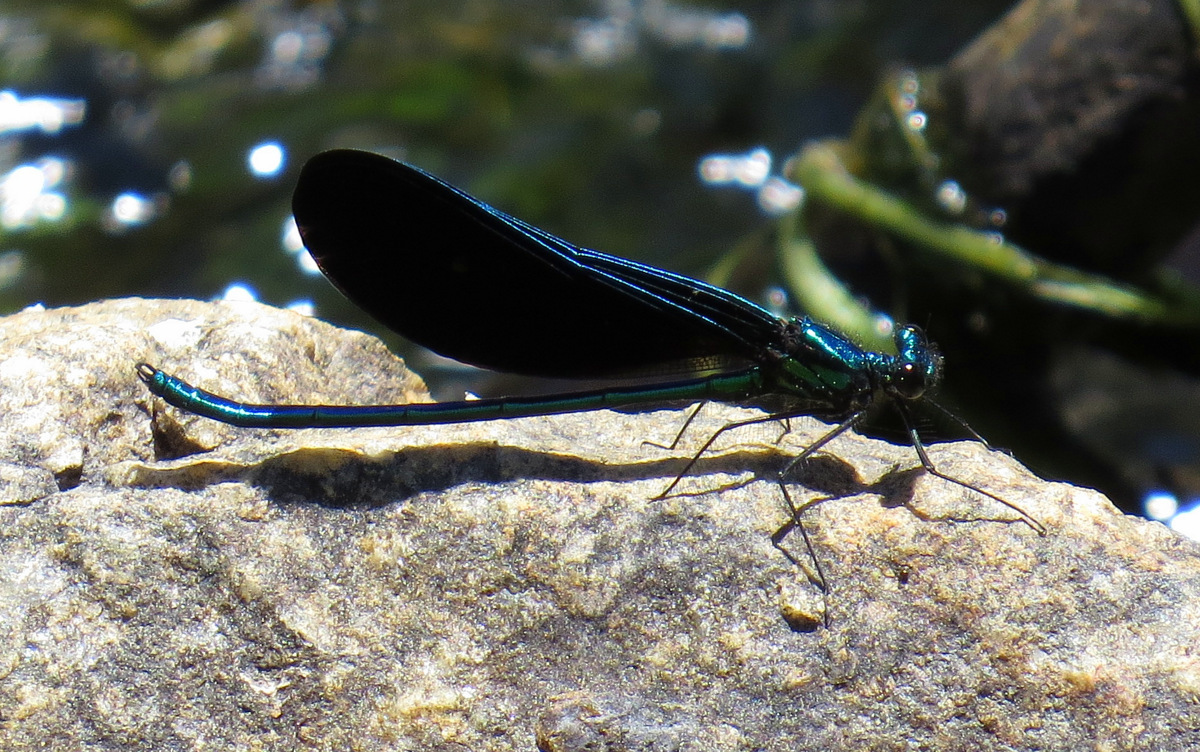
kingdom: Animalia
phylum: Arthropoda
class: Insecta
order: Odonata
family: Calopterygidae
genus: Calopteryx
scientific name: Calopteryx maculata
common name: Ebony jewelwing
